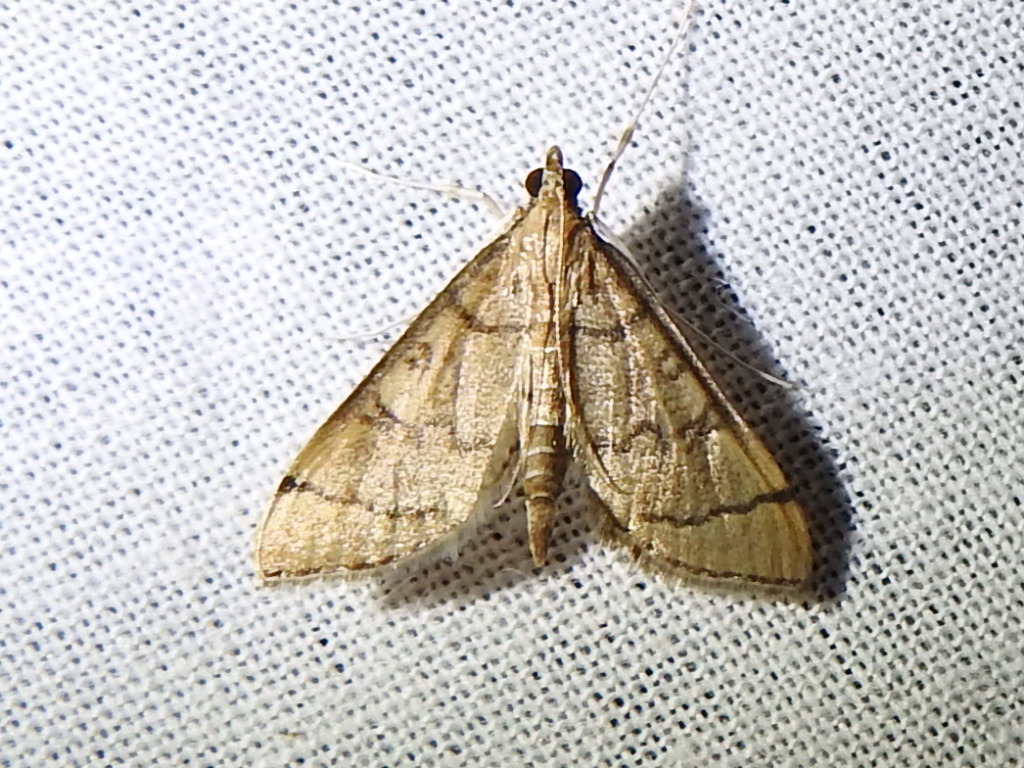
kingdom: Animalia
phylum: Arthropoda
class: Insecta
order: Lepidoptera
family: Crambidae
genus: Lamprosema
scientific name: Lamprosema Blepharomastix ranalis
